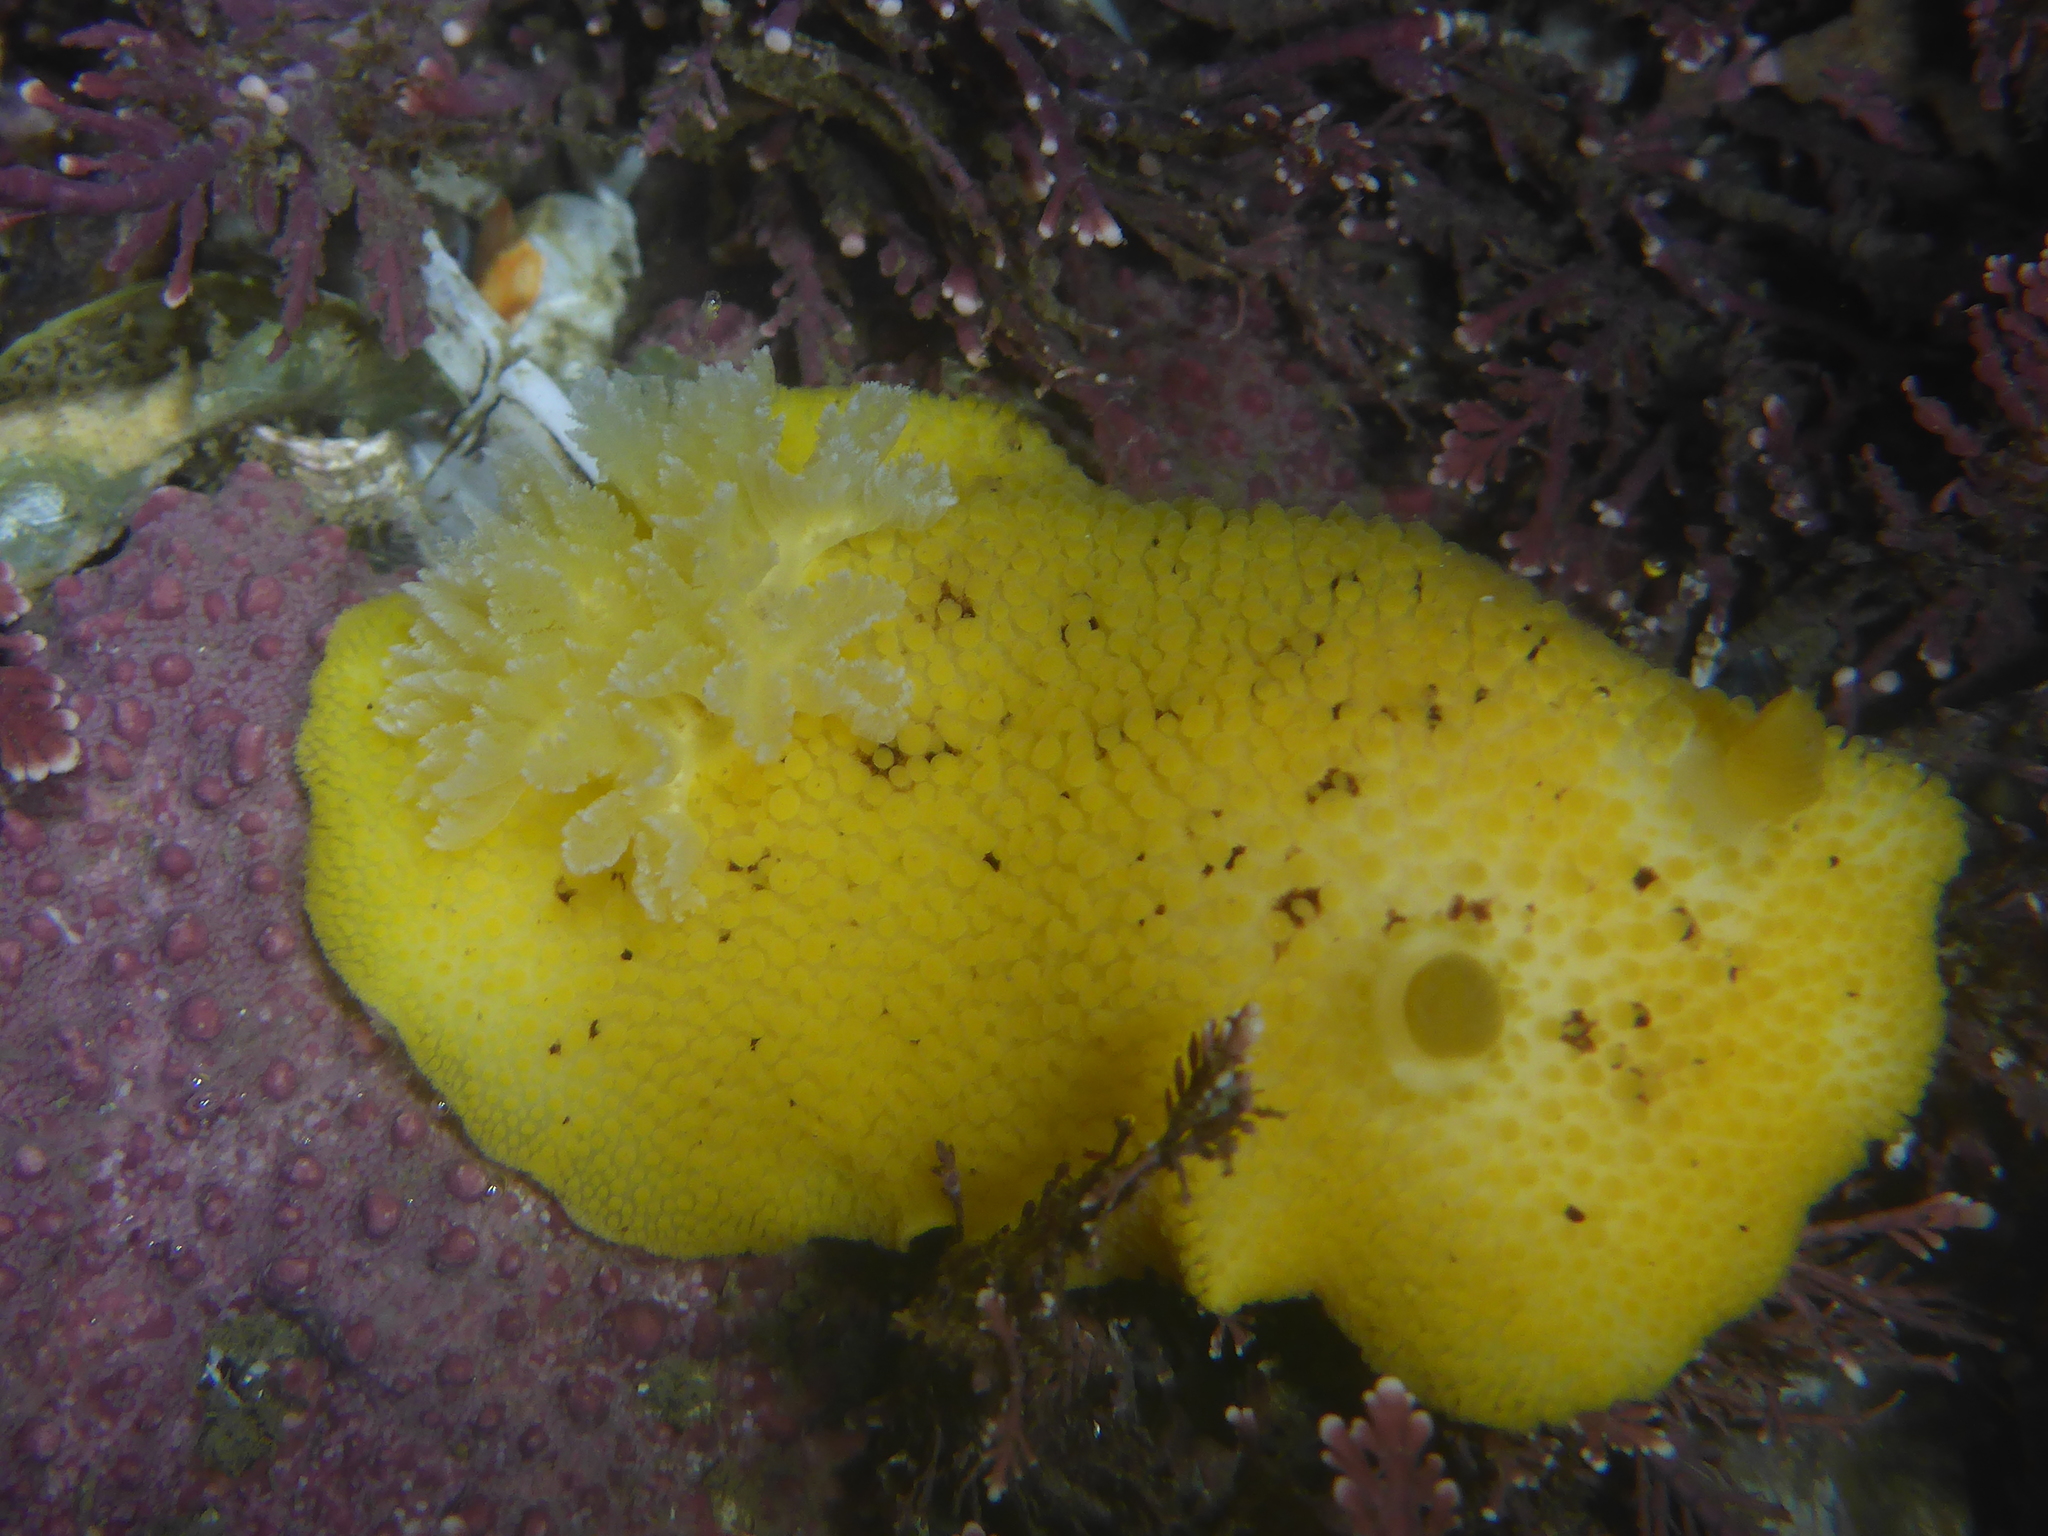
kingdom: Animalia
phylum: Mollusca
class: Gastropoda
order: Nudibranchia
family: Discodorididae
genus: Peltodoris
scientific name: Peltodoris nobilis
